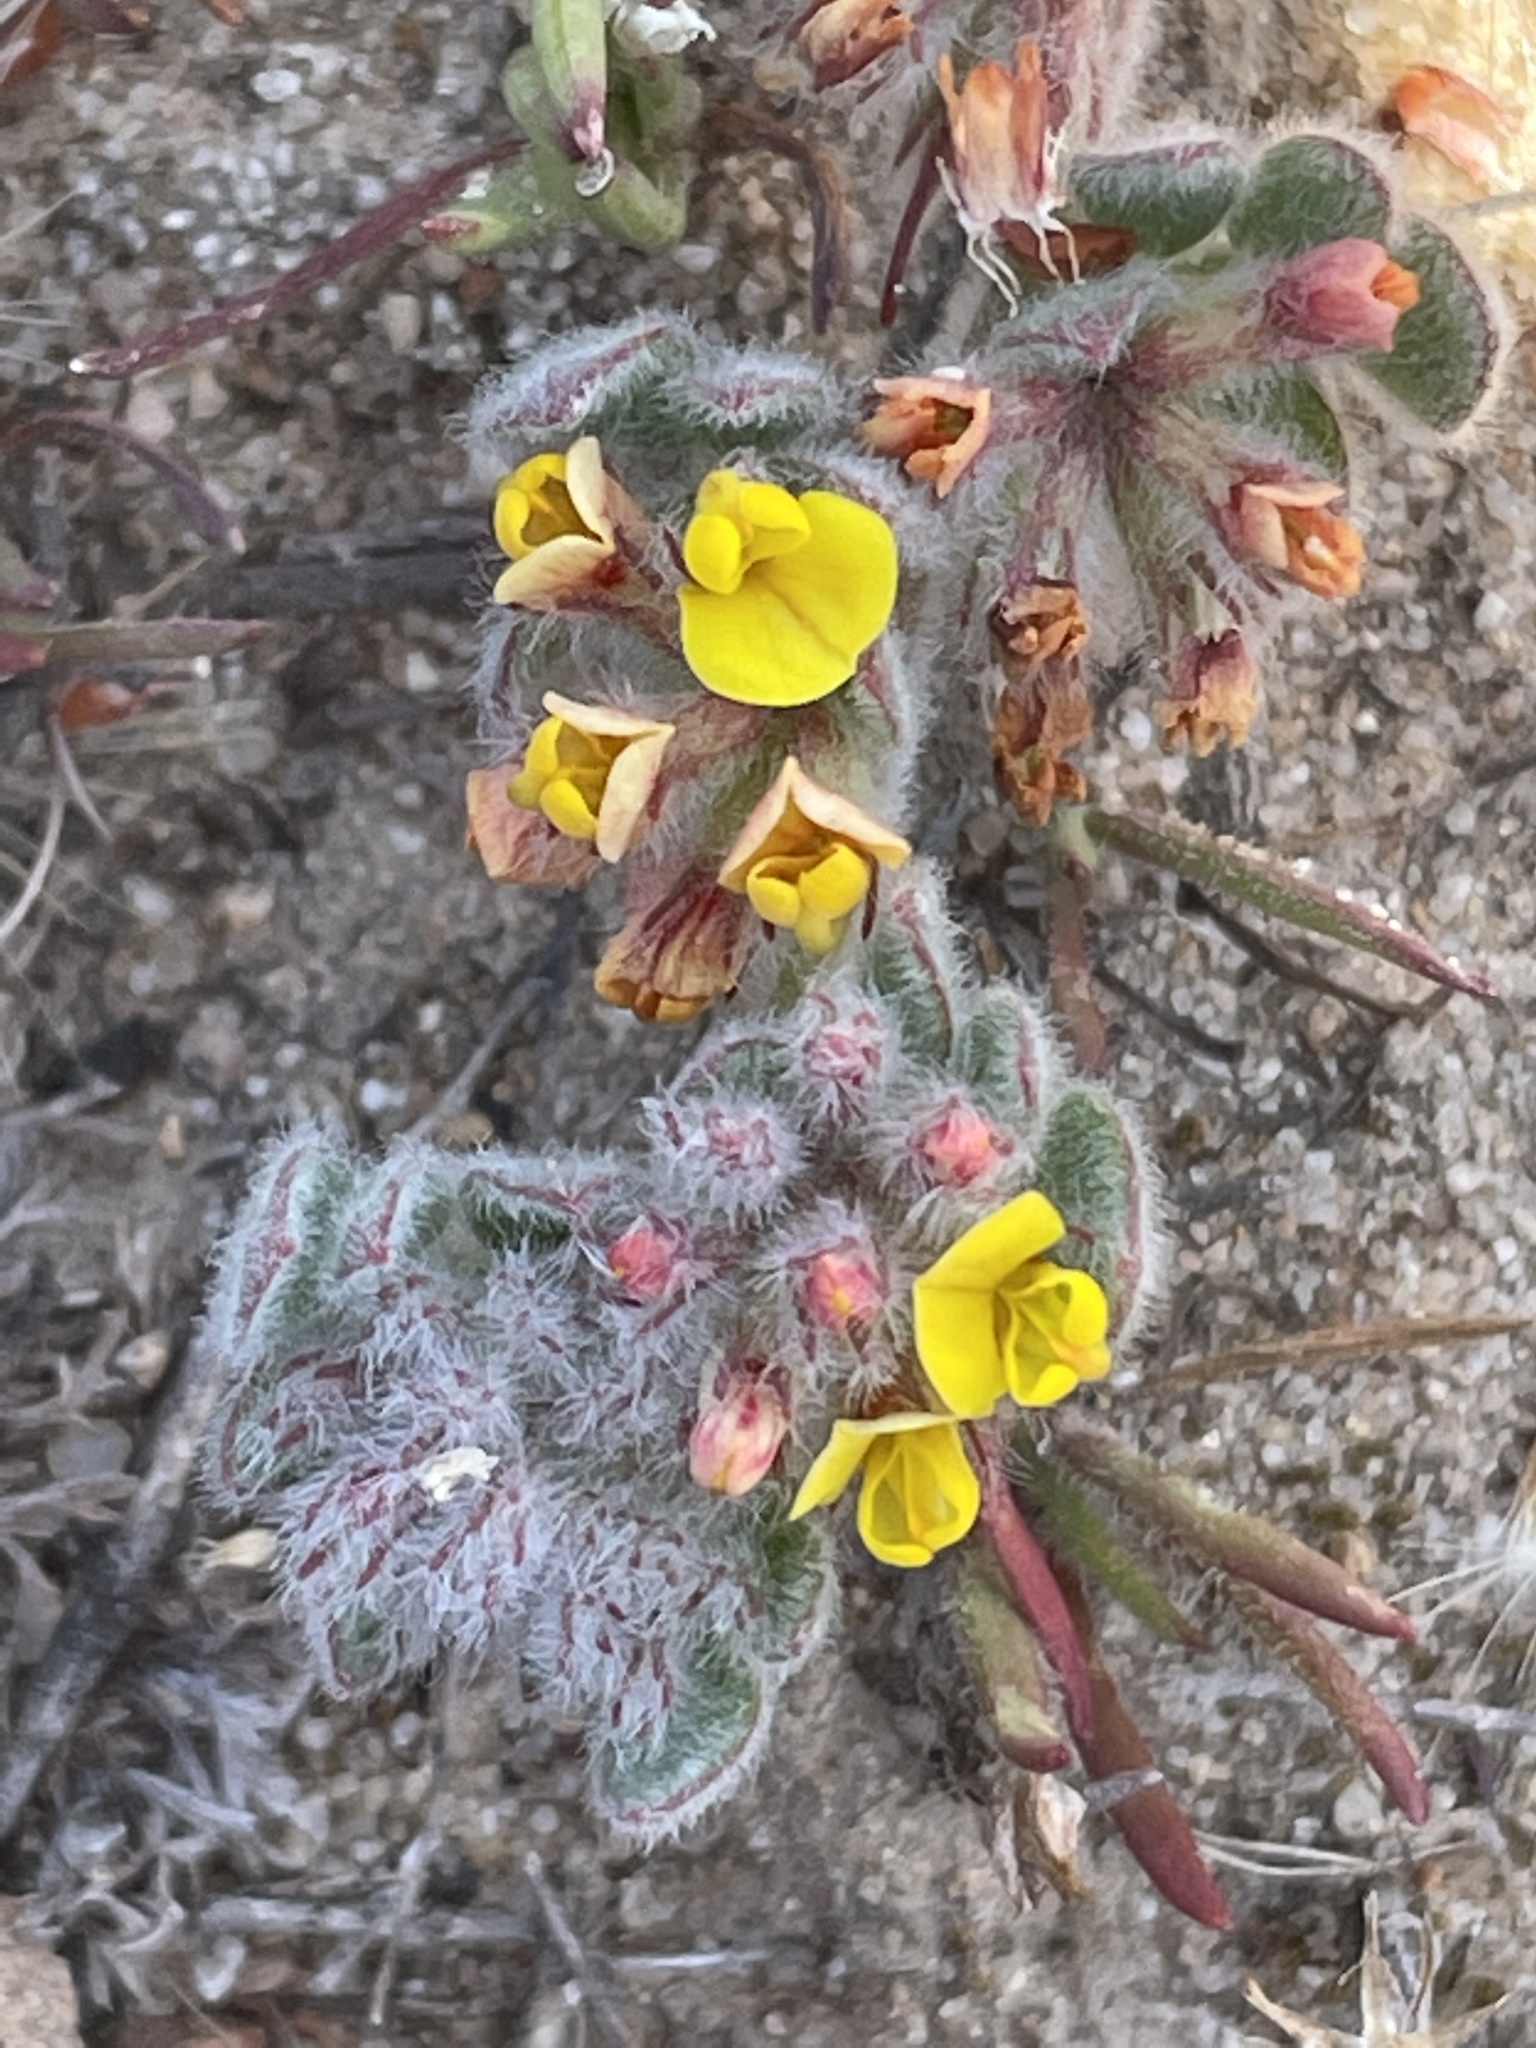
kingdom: Plantae
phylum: Tracheophyta
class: Magnoliopsida
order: Fabales
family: Fabaceae
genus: Acmispon
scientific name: Acmispon tomentosus
